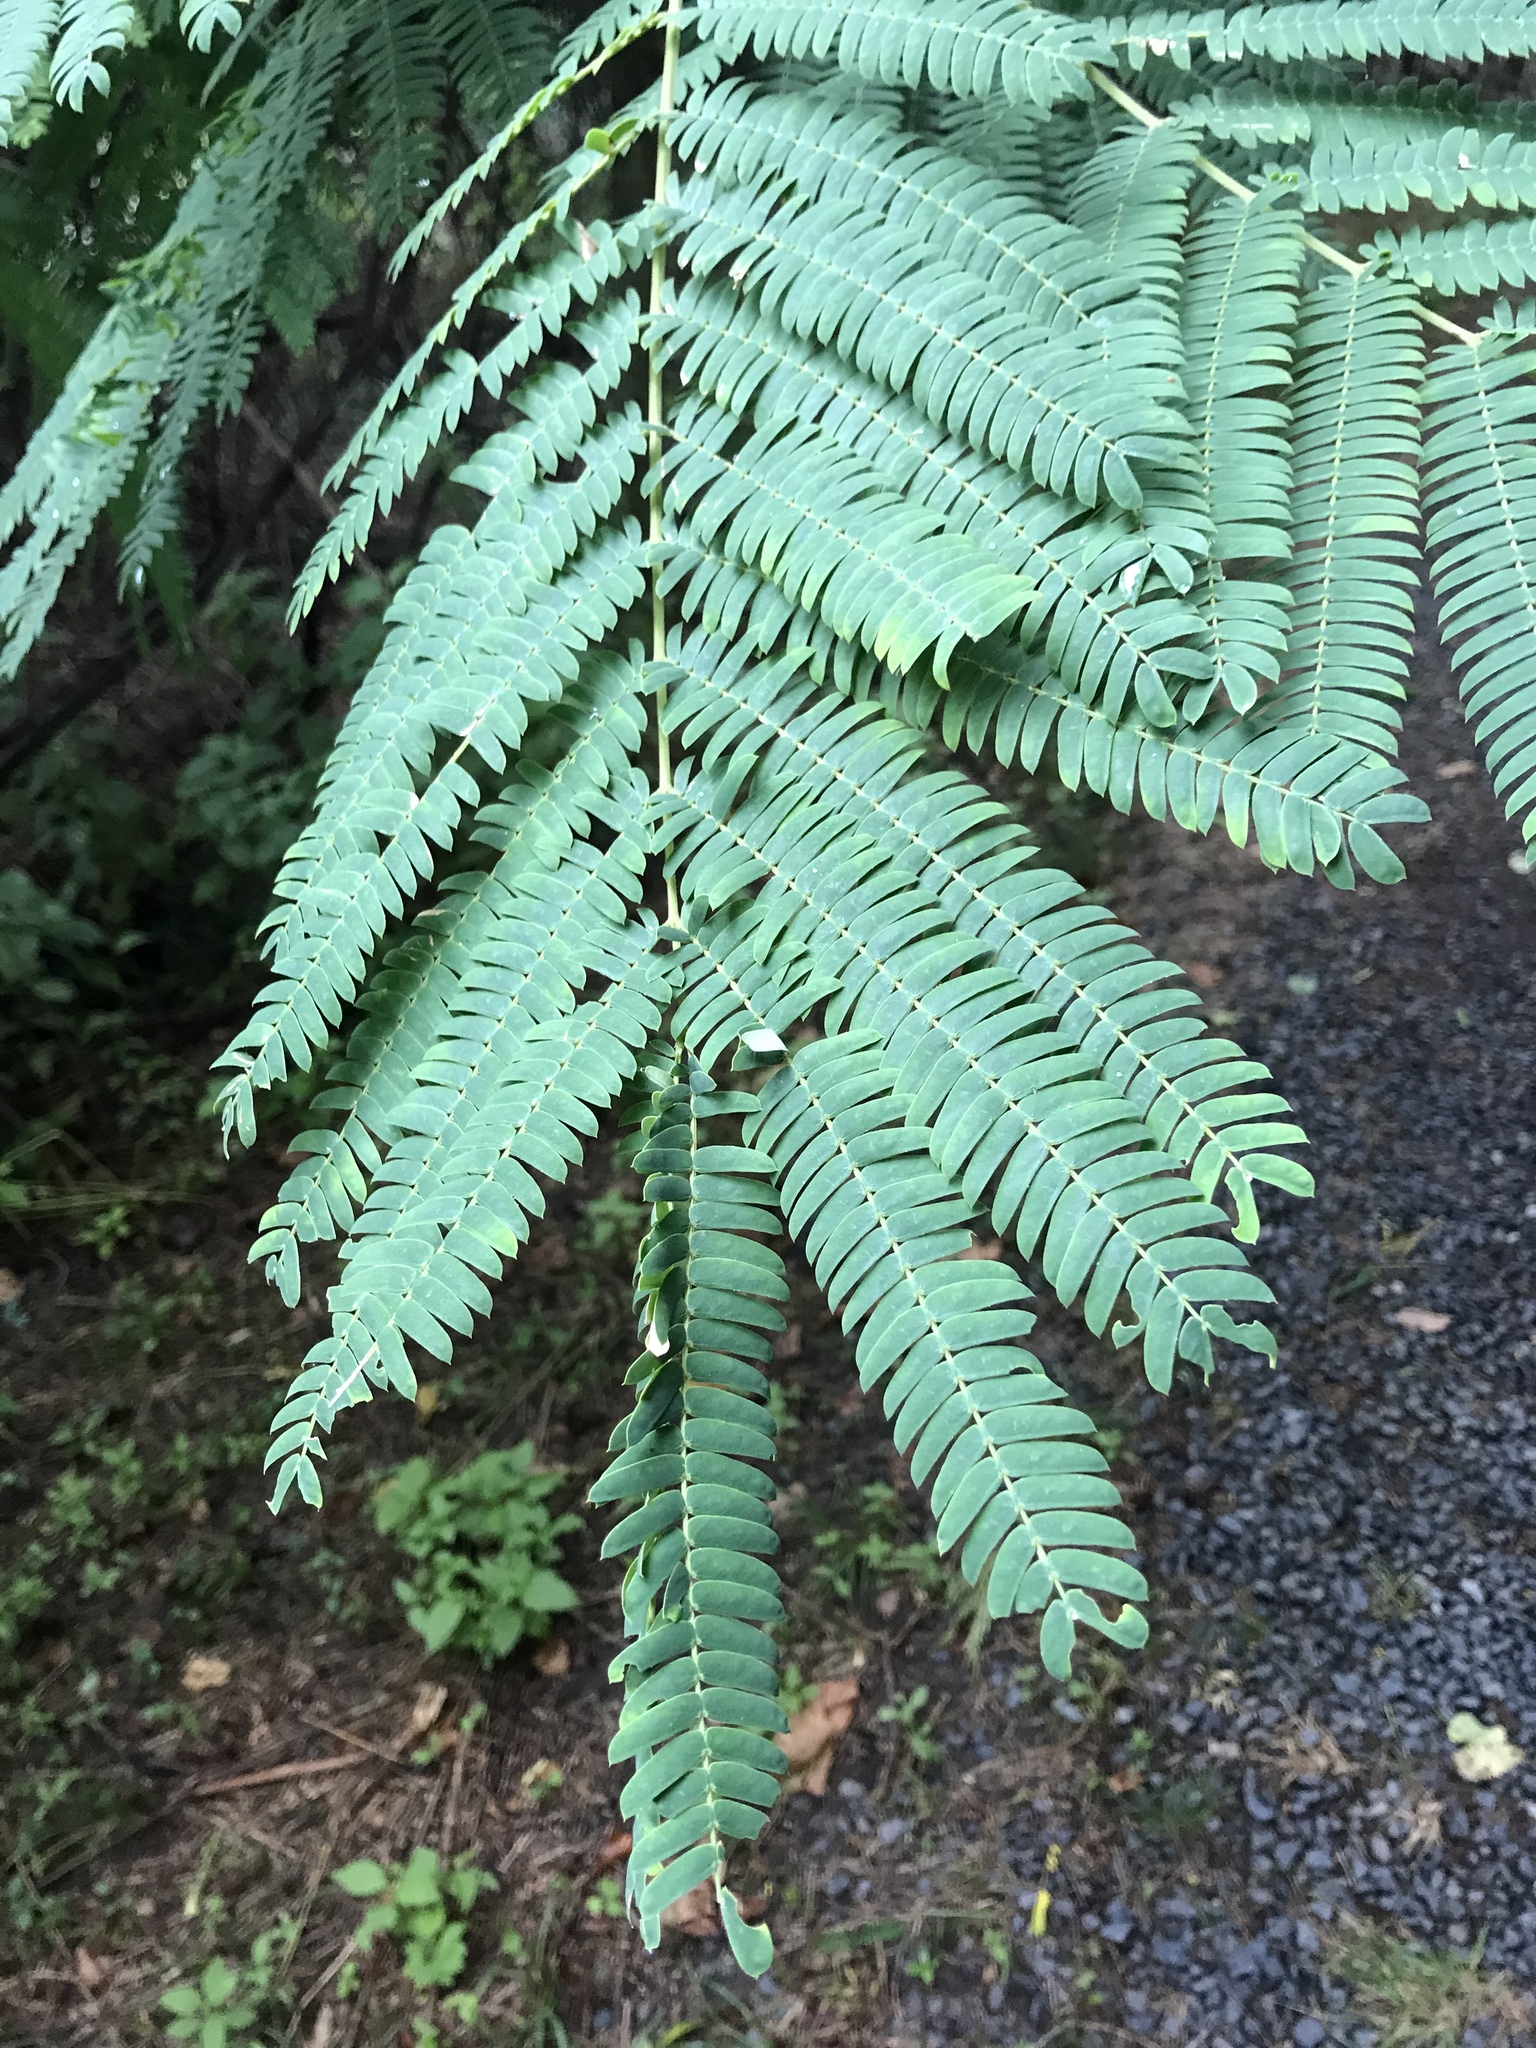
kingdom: Plantae
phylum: Tracheophyta
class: Magnoliopsida
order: Fabales
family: Fabaceae
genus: Albizia
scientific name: Albizia julibrissin
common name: Silktree
